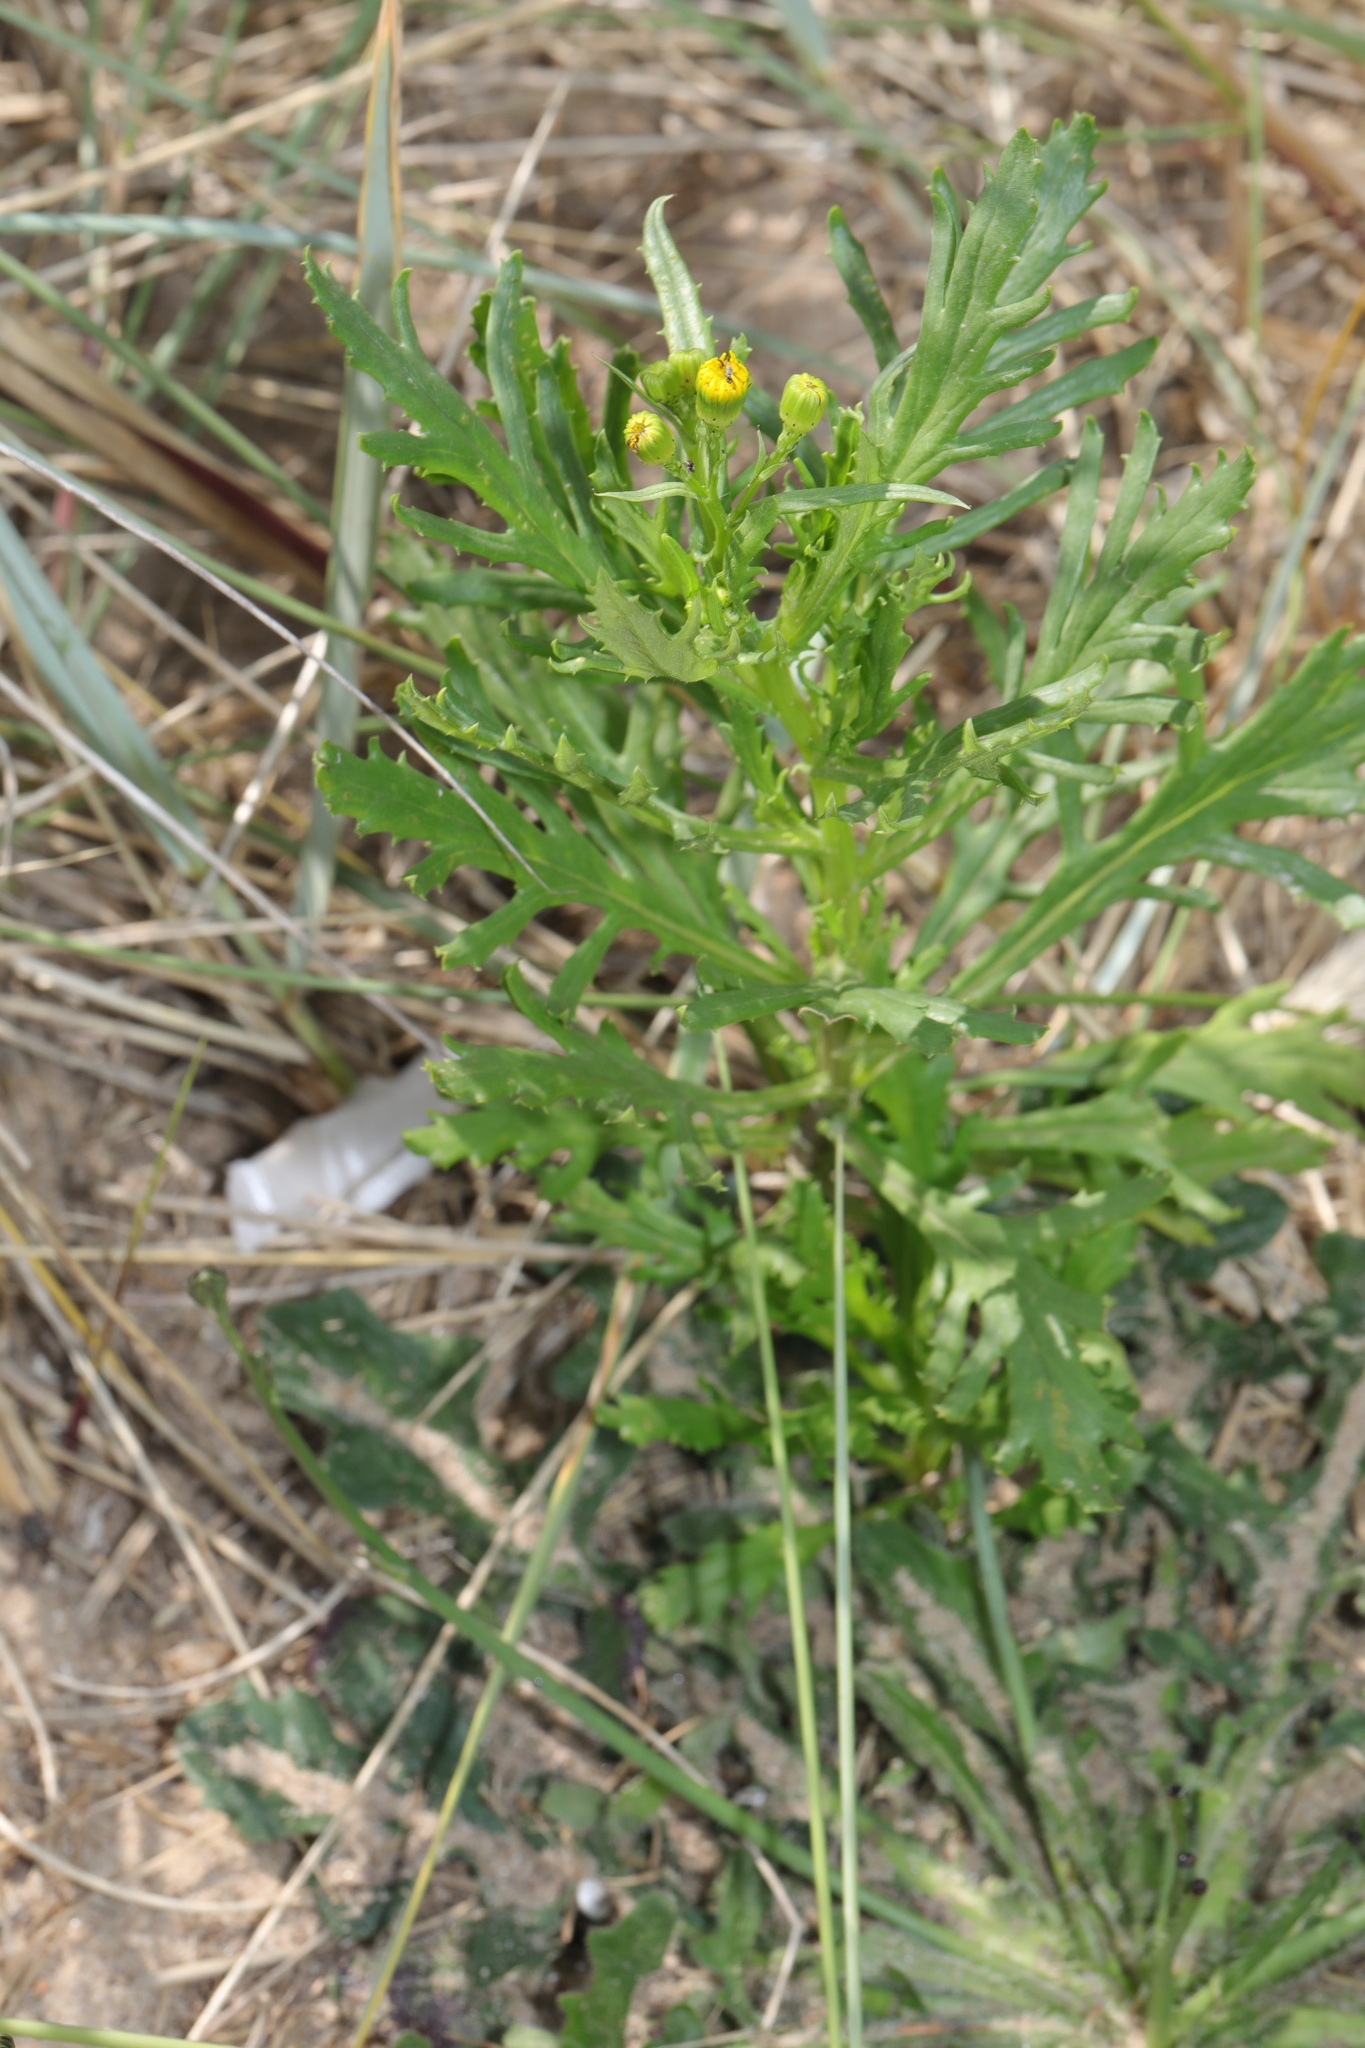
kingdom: Plantae
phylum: Tracheophyta
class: Magnoliopsida
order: Asterales
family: Asteraceae
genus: Senecio
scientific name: Senecio squalidus
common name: Oxford ragwort
